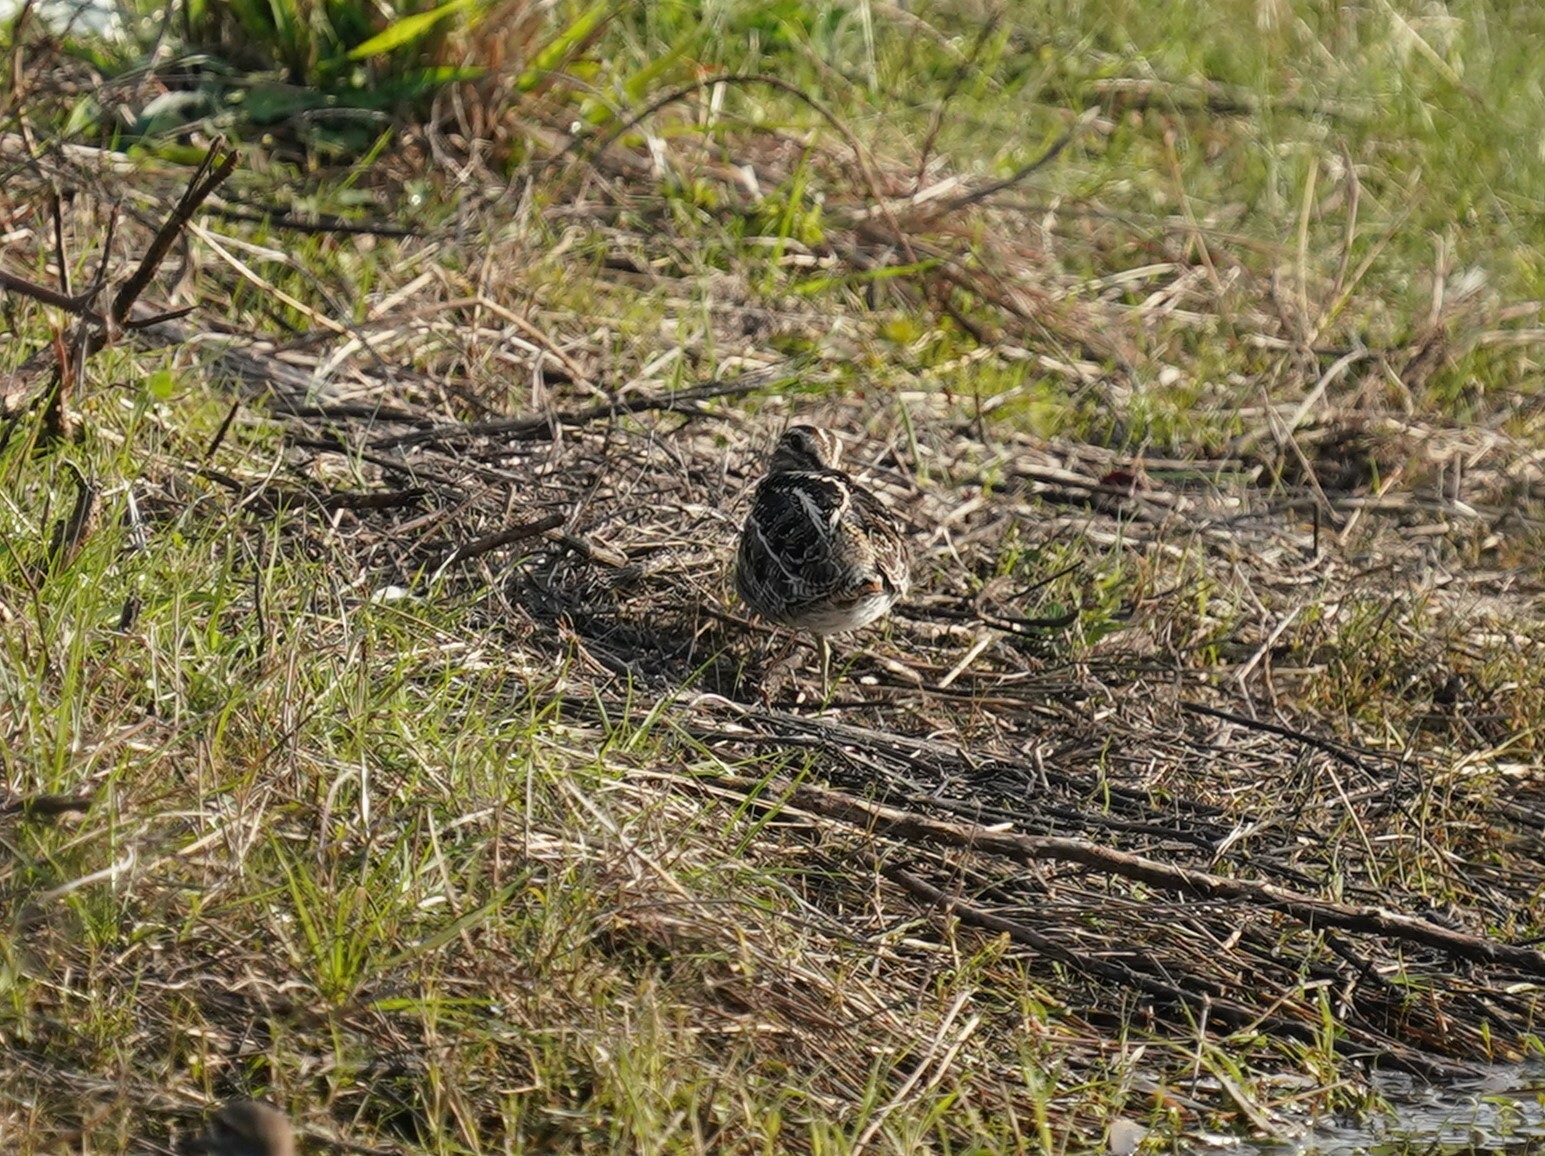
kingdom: Animalia
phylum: Chordata
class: Aves
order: Charadriiformes
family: Scolopacidae
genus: Gallinago
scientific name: Gallinago delicata
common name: Wilson's snipe
